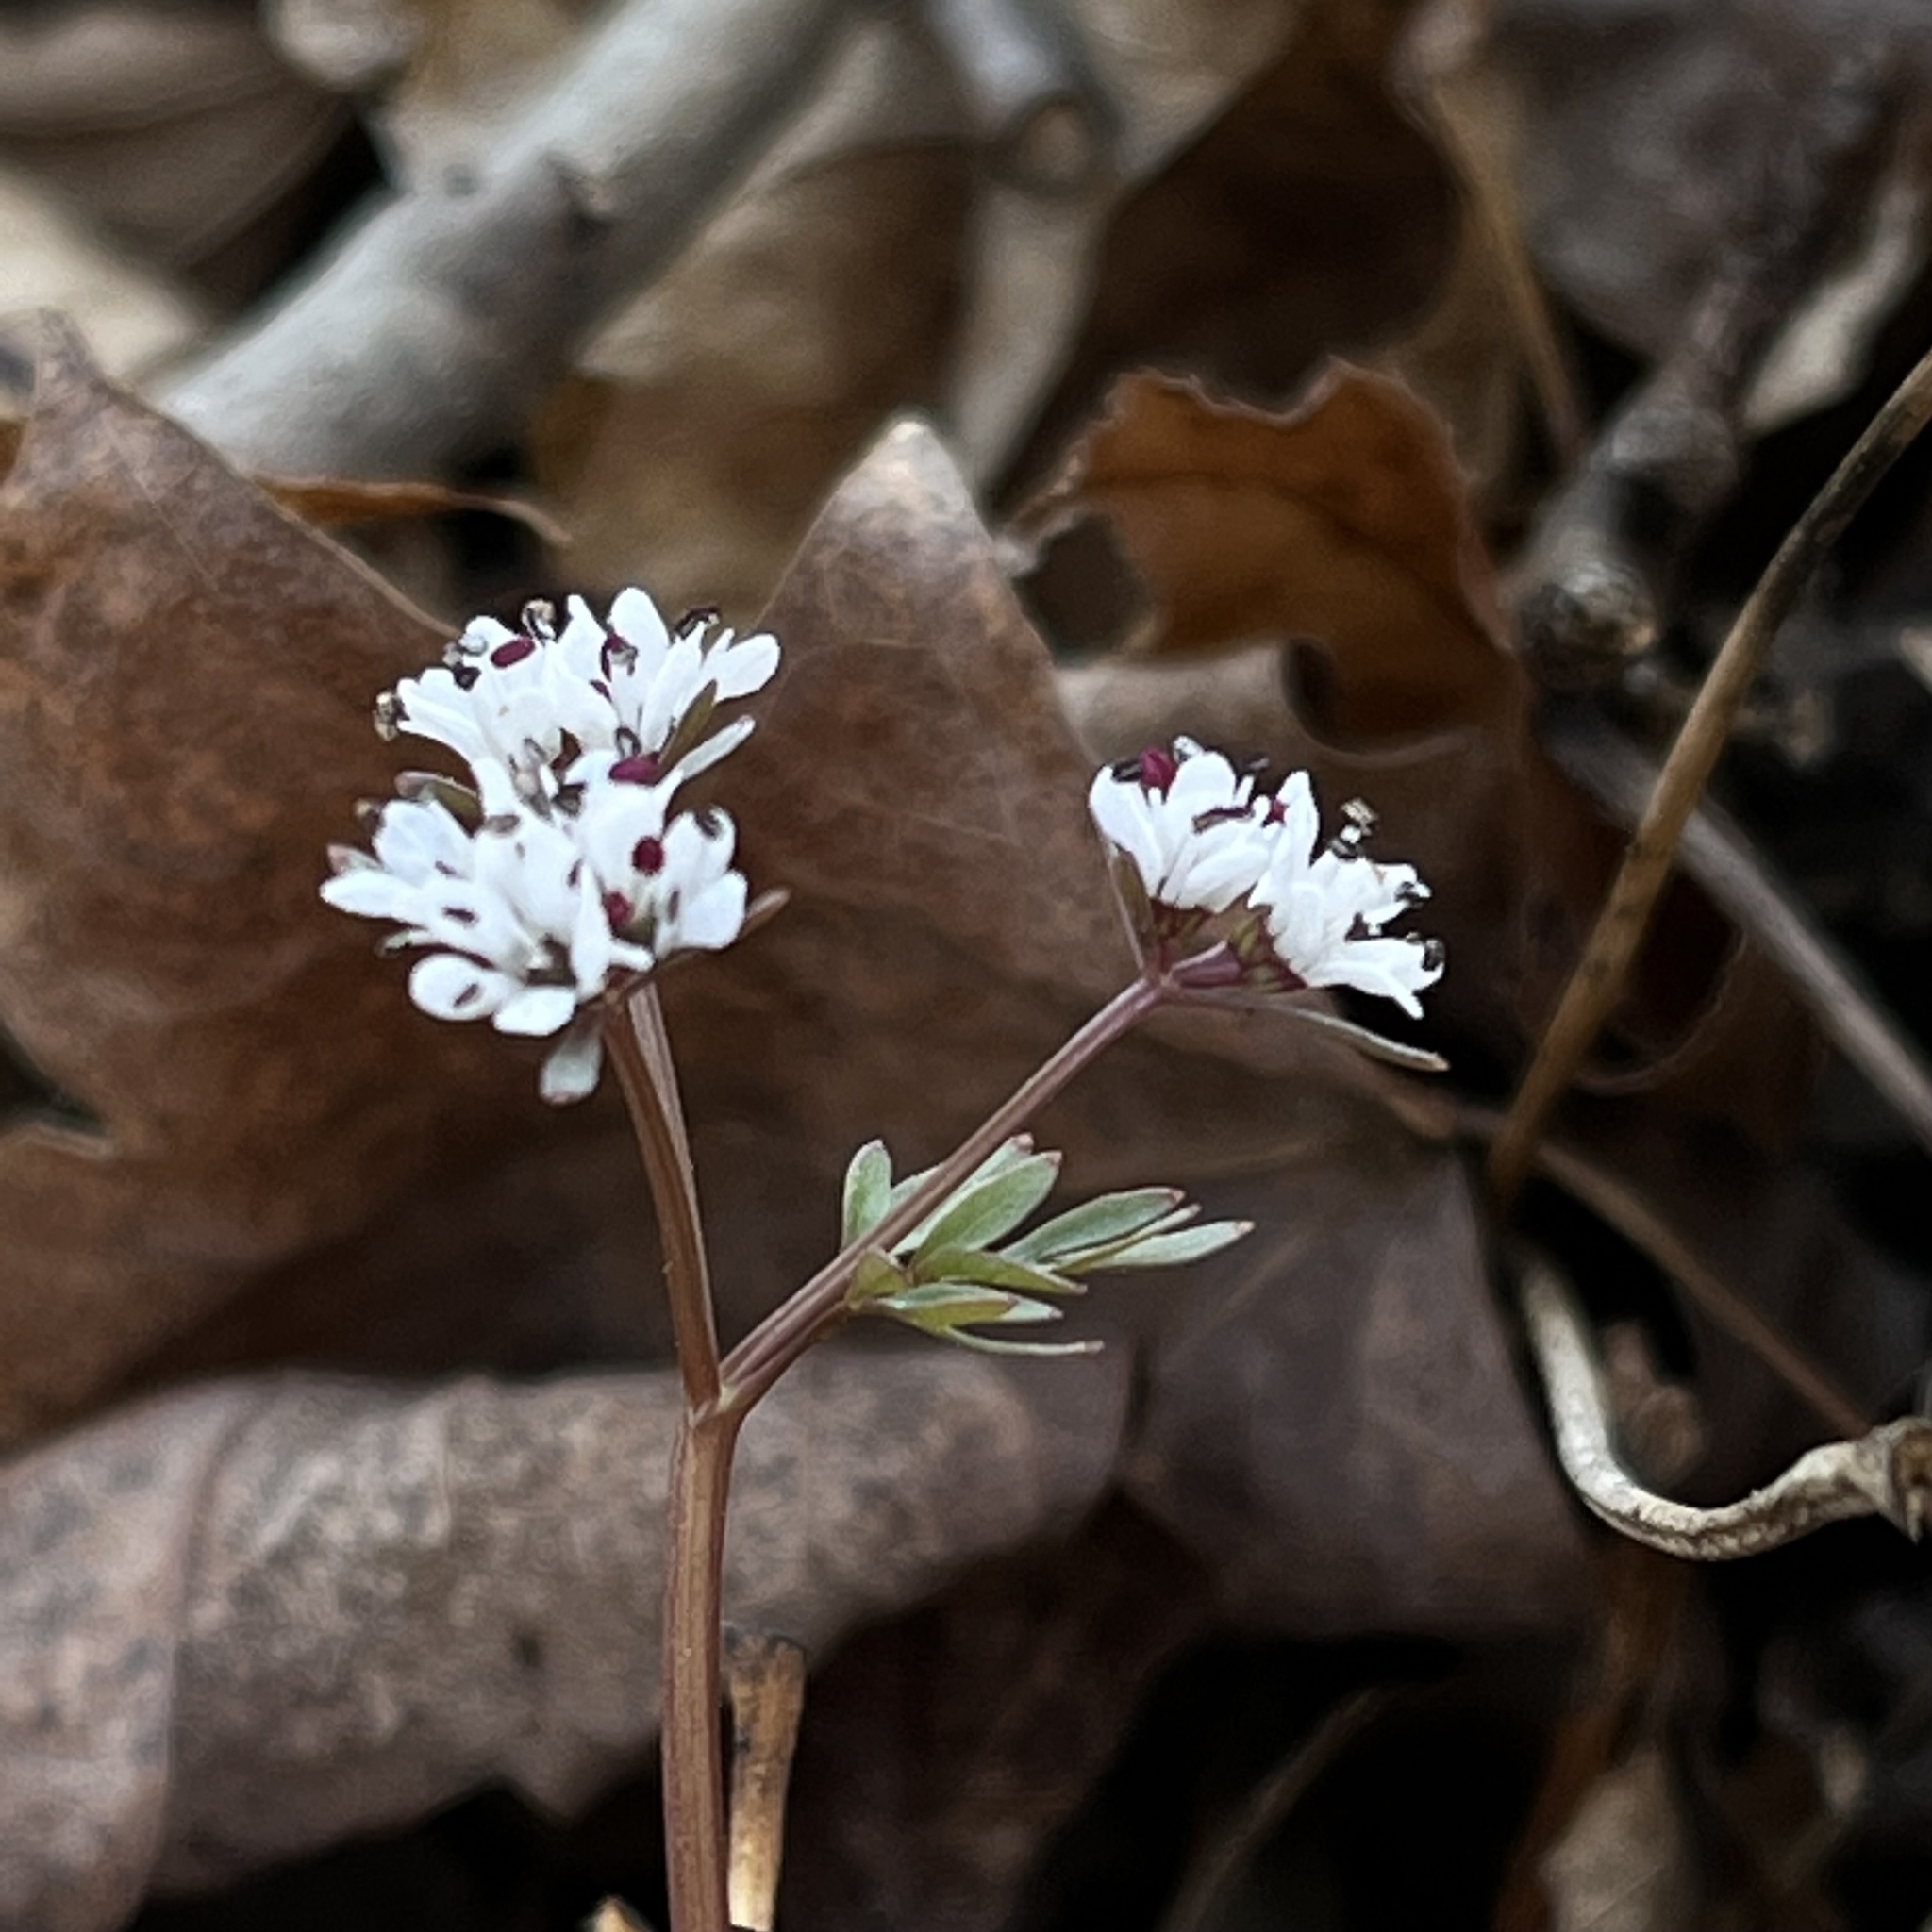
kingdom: Plantae
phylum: Tracheophyta
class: Magnoliopsida
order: Apiales
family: Apiaceae
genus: Erigenia
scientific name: Erigenia bulbosa
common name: Pepper-and-salt
